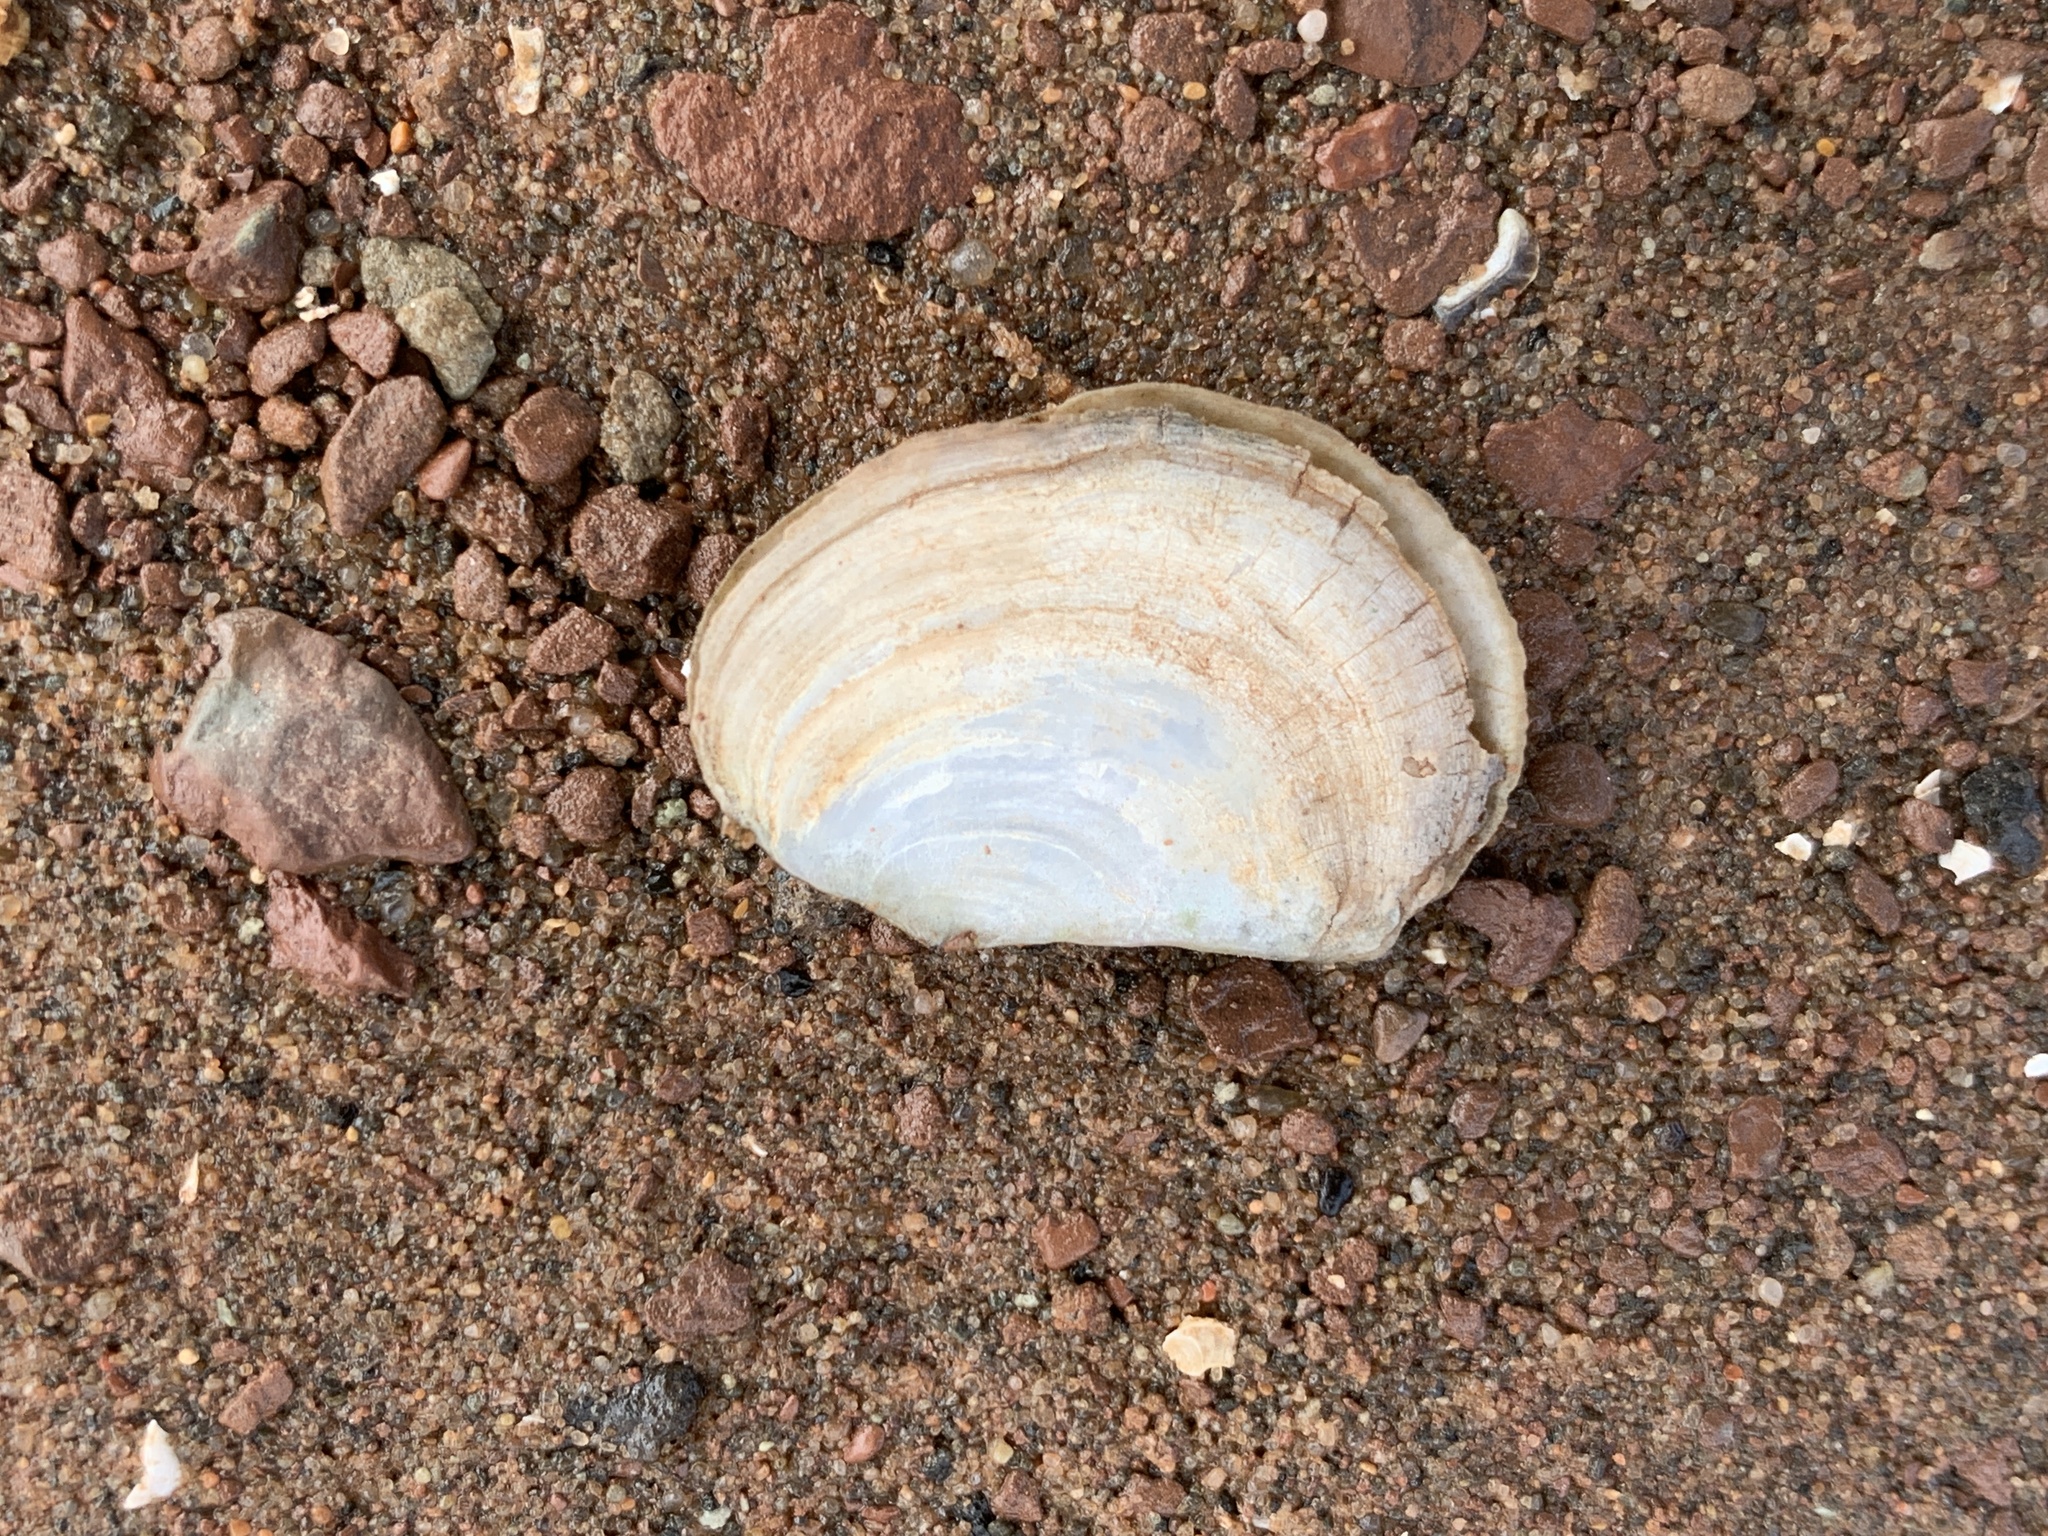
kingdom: Animalia
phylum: Mollusca
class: Bivalvia
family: Pandoridae
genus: Pandora
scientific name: Pandora gouldiana
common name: Rounded pandora
